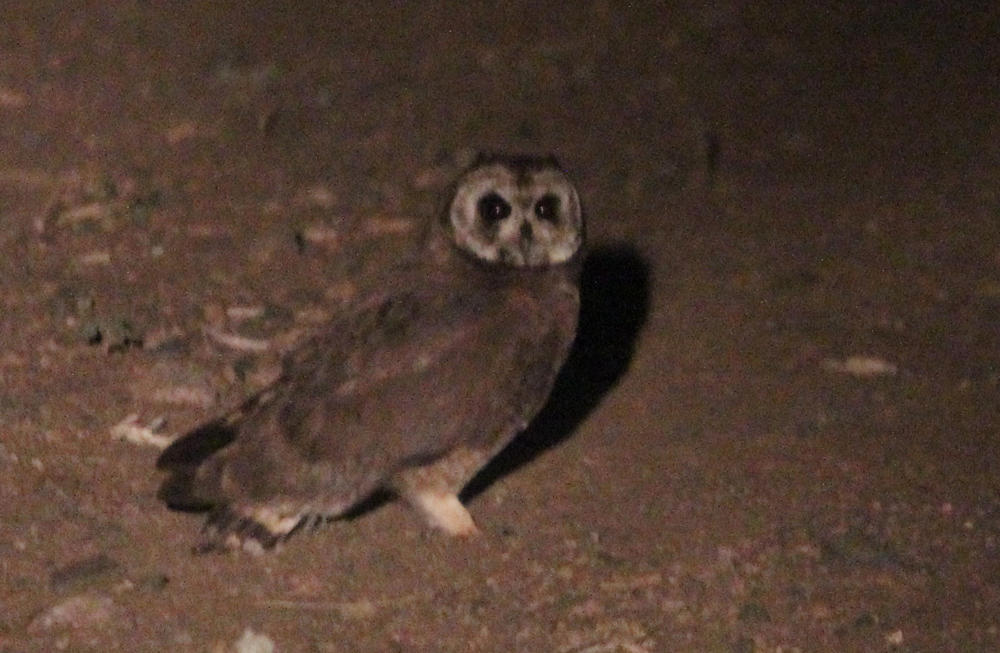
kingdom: Animalia
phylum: Chordata
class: Aves
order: Strigiformes
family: Strigidae
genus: Asio
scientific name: Asio capensis
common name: Marsh owl
